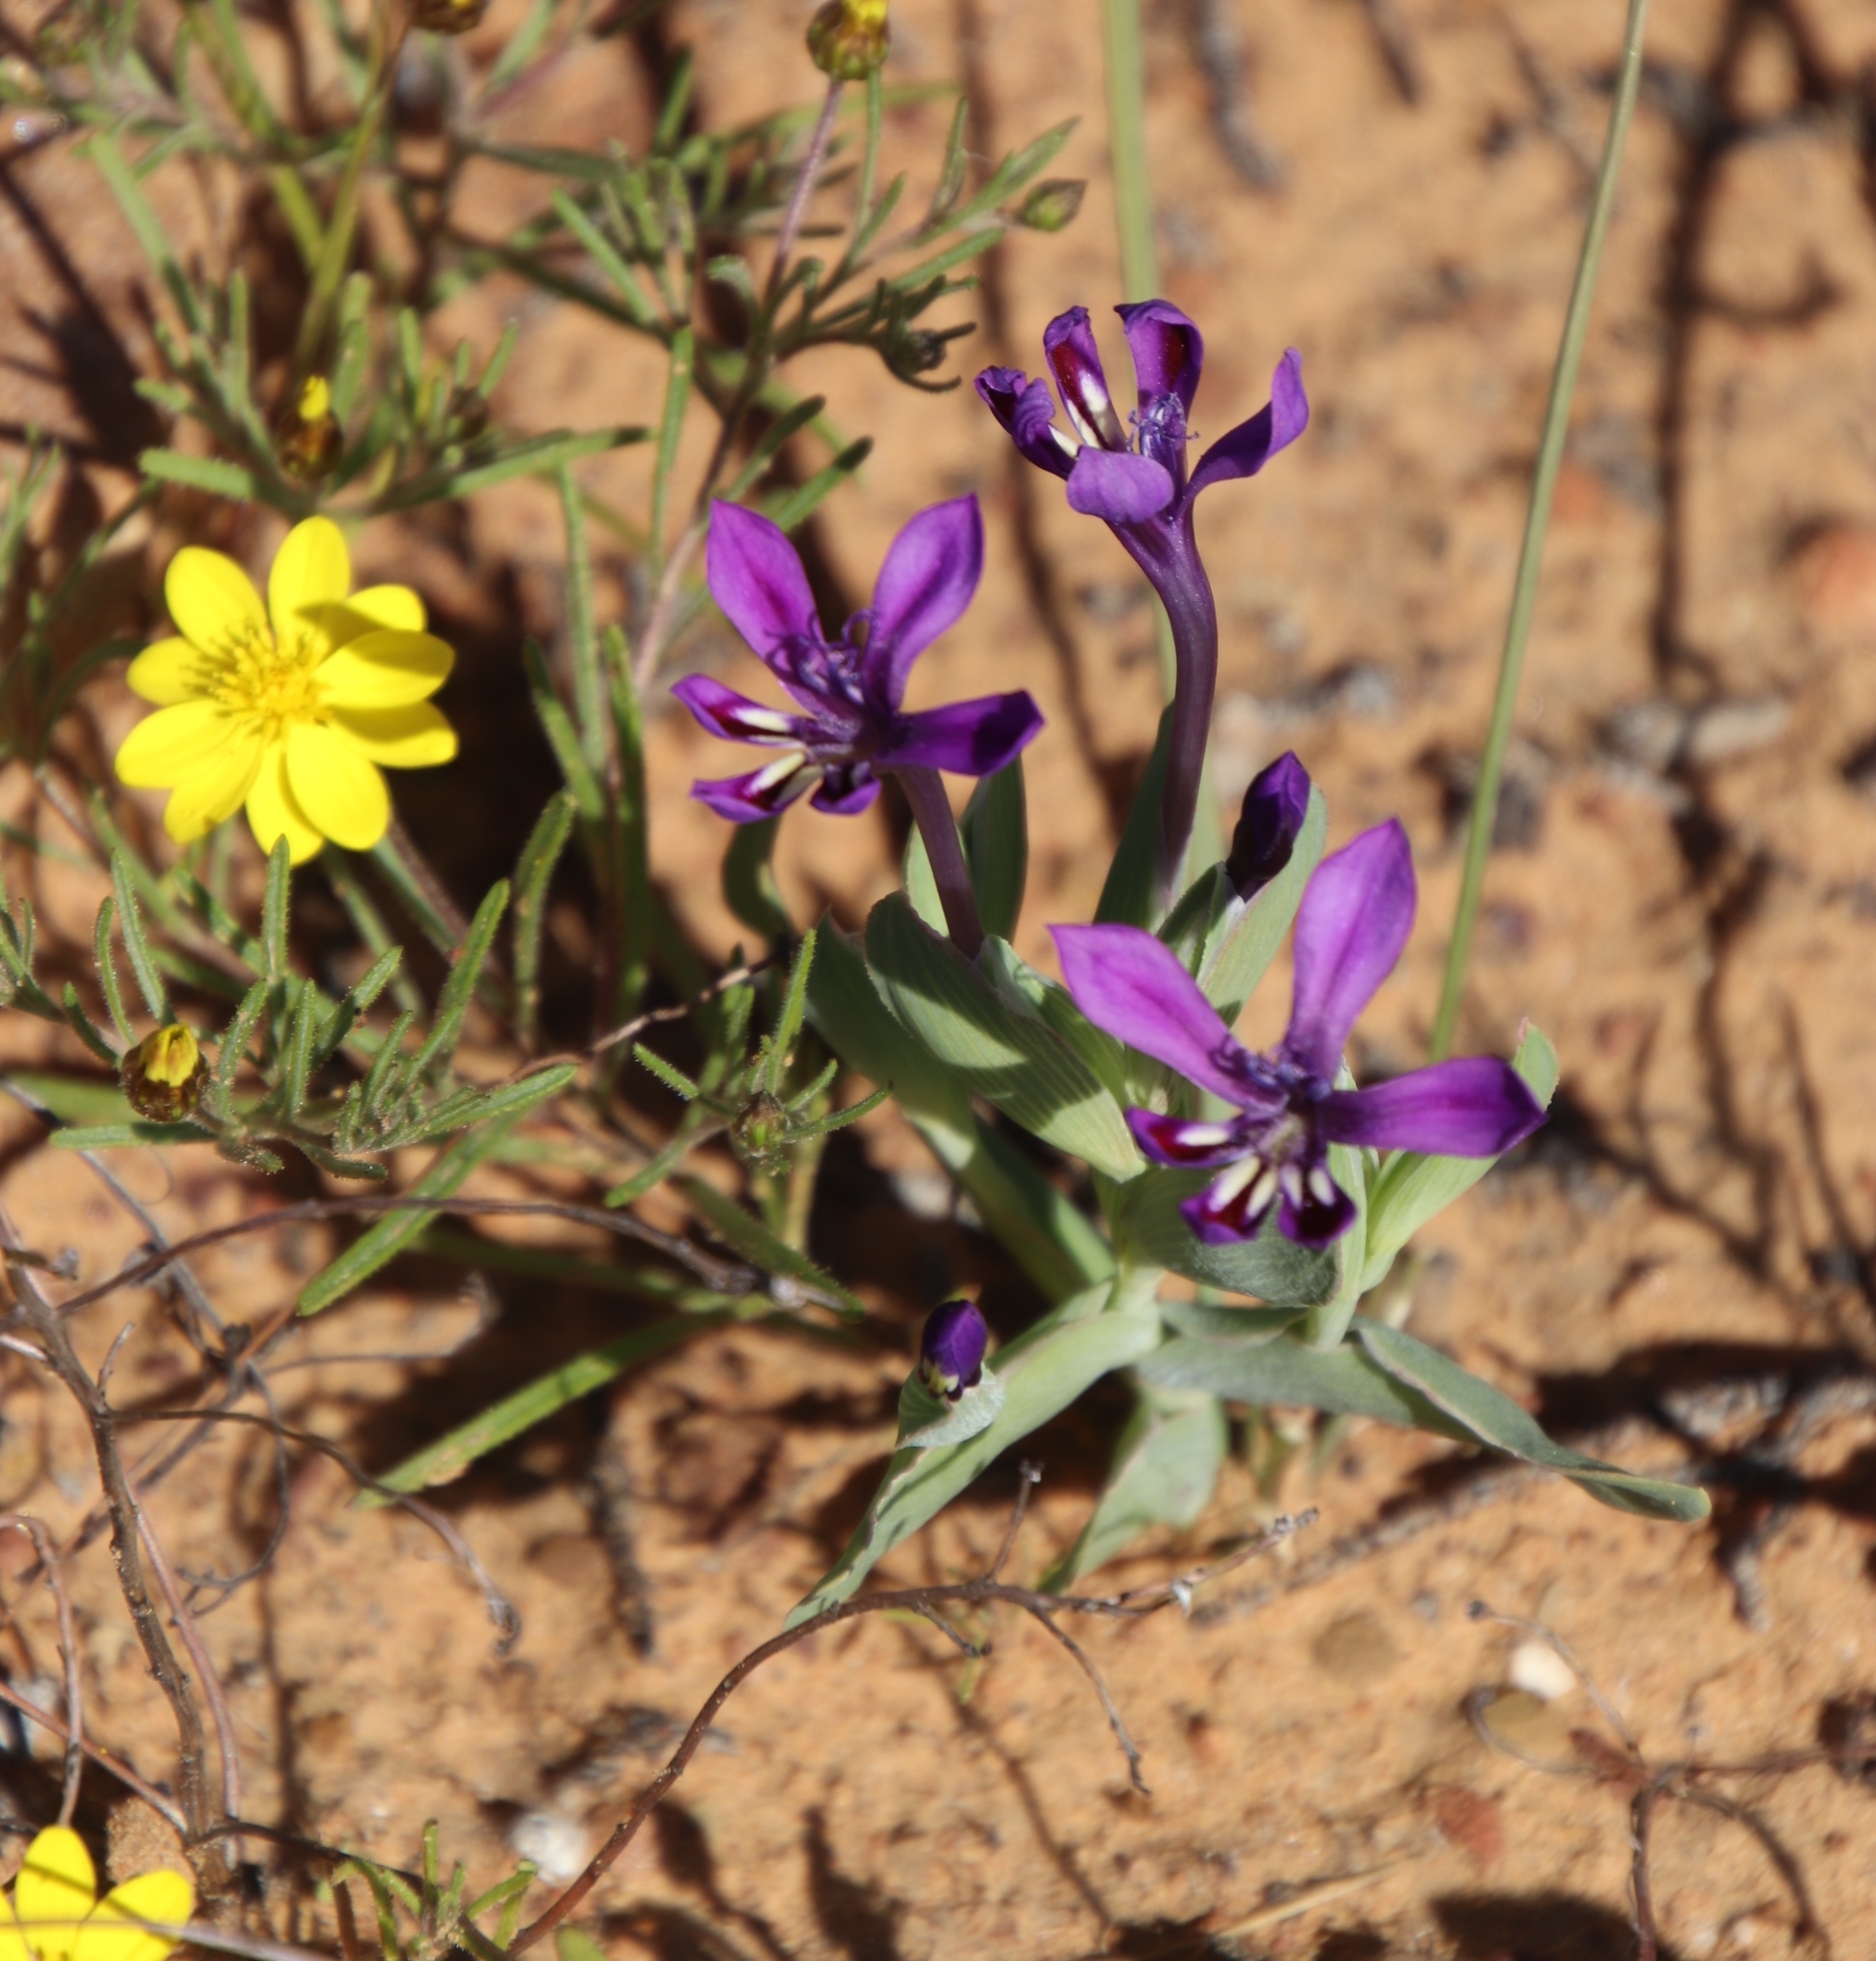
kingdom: Plantae
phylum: Tracheophyta
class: Liliopsida
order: Asparagales
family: Iridaceae
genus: Lapeirousia
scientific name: Lapeirousia jacquinii
